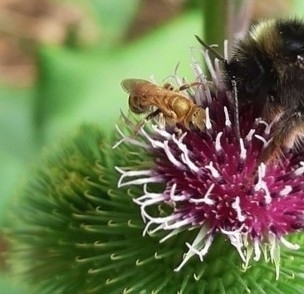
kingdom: Animalia
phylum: Arthropoda
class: Insecta
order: Hymenoptera
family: Halictidae
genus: Seladonia
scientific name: Seladonia
